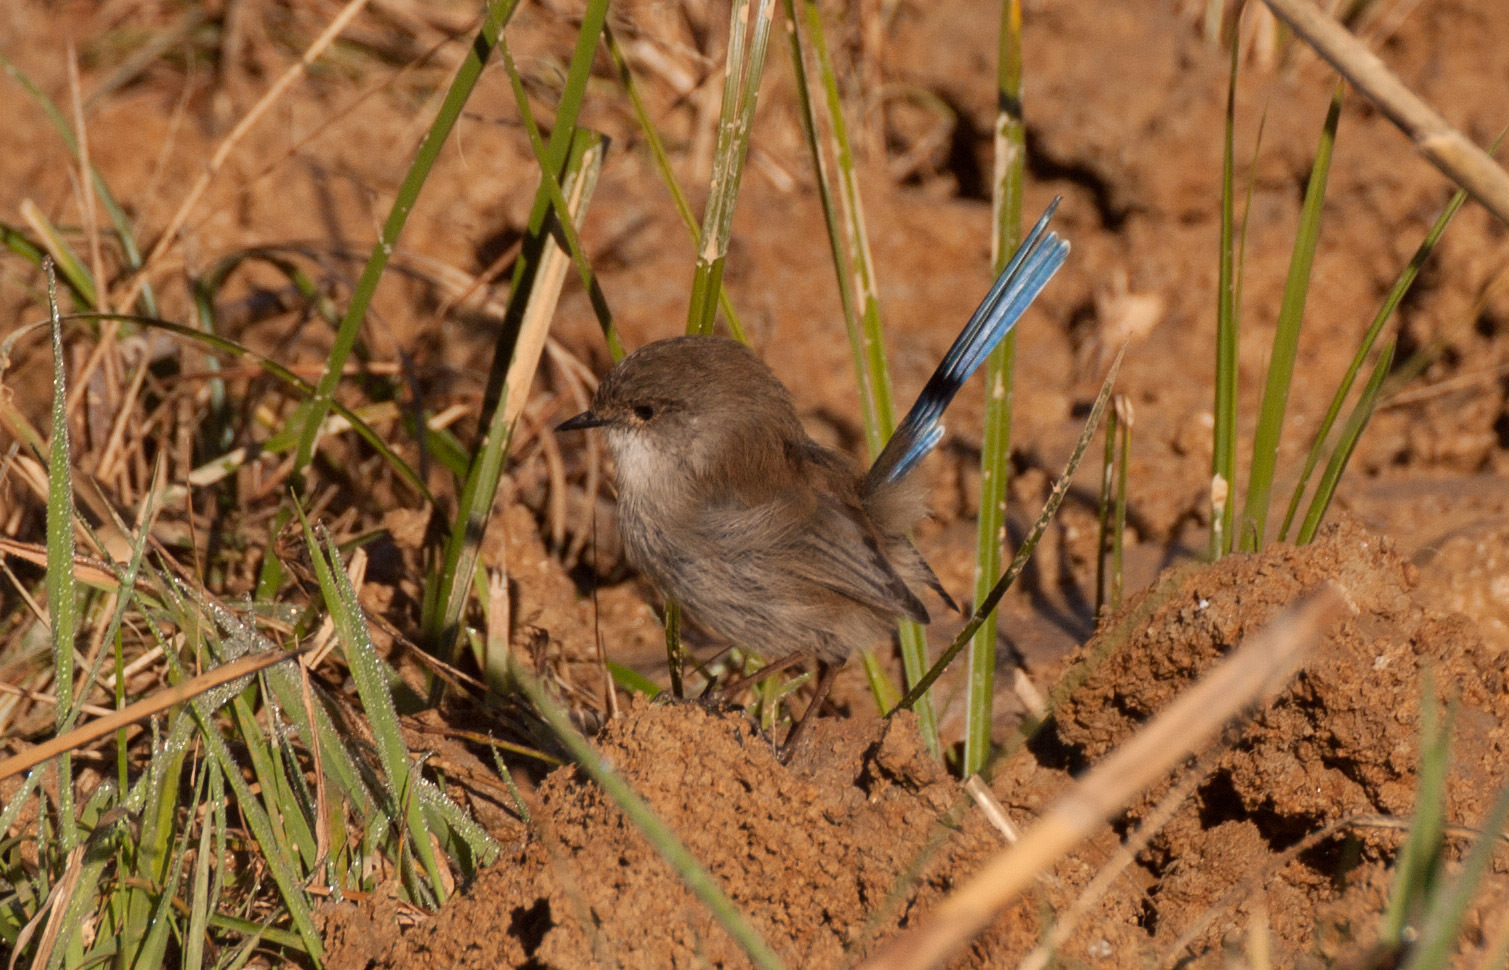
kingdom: Animalia
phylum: Chordata
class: Aves
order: Passeriformes
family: Maluridae
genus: Malurus
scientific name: Malurus cyaneus
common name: Superb fairywren
